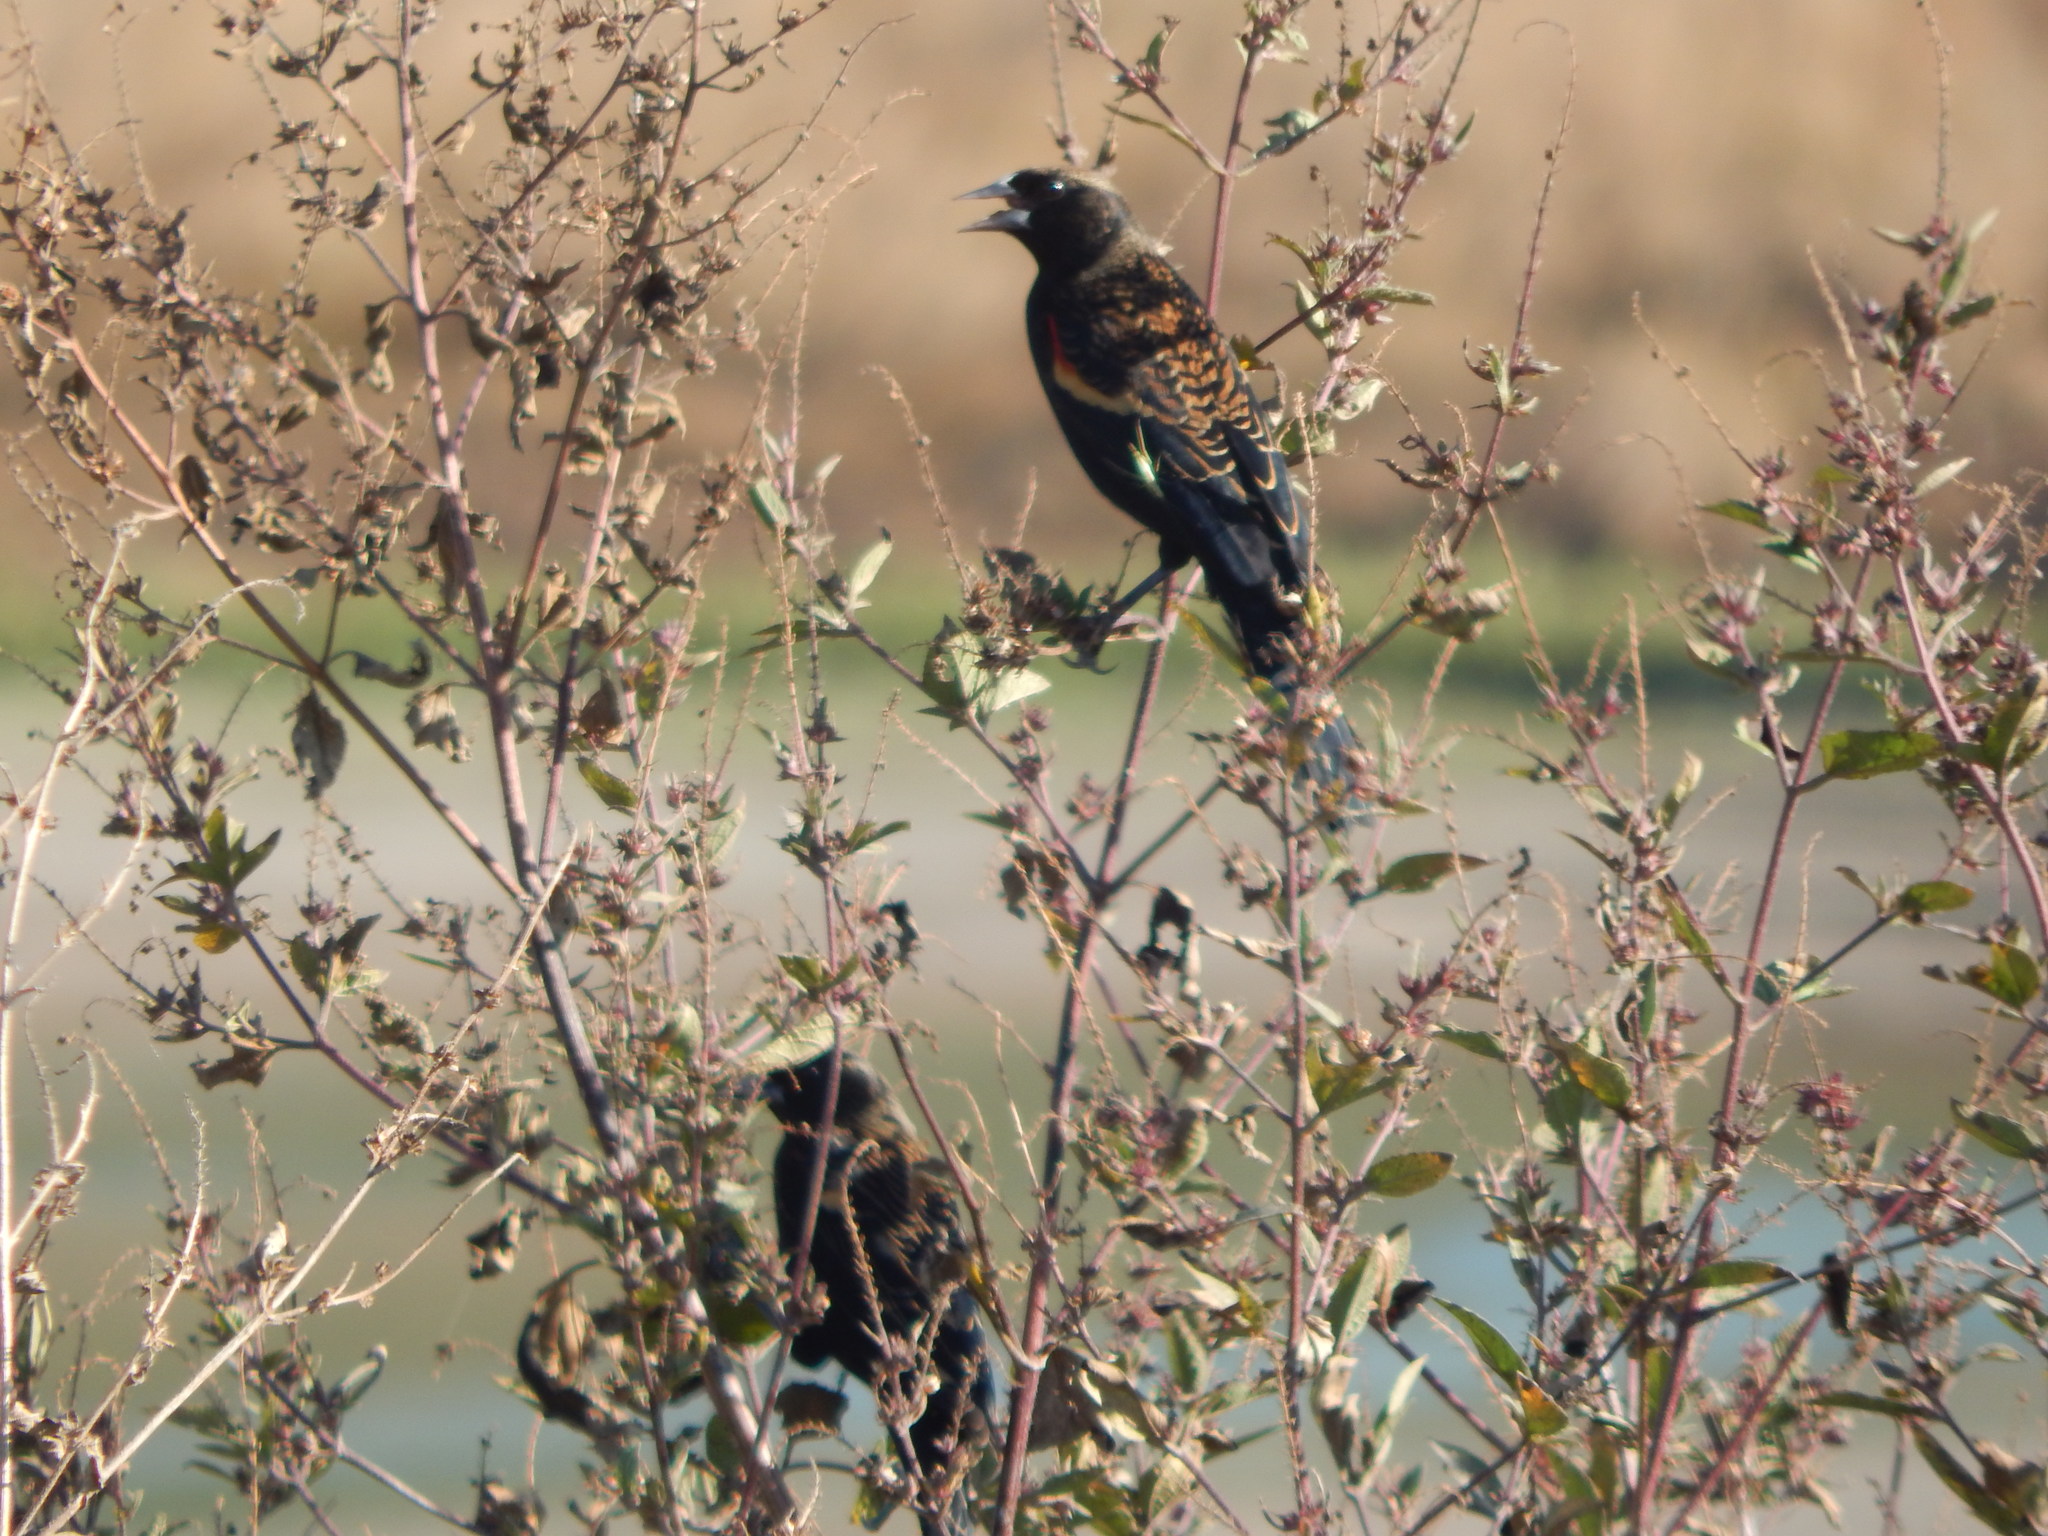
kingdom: Animalia
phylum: Chordata
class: Aves
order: Passeriformes
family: Icteridae
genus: Agelaius
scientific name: Agelaius phoeniceus
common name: Red-winged blackbird
